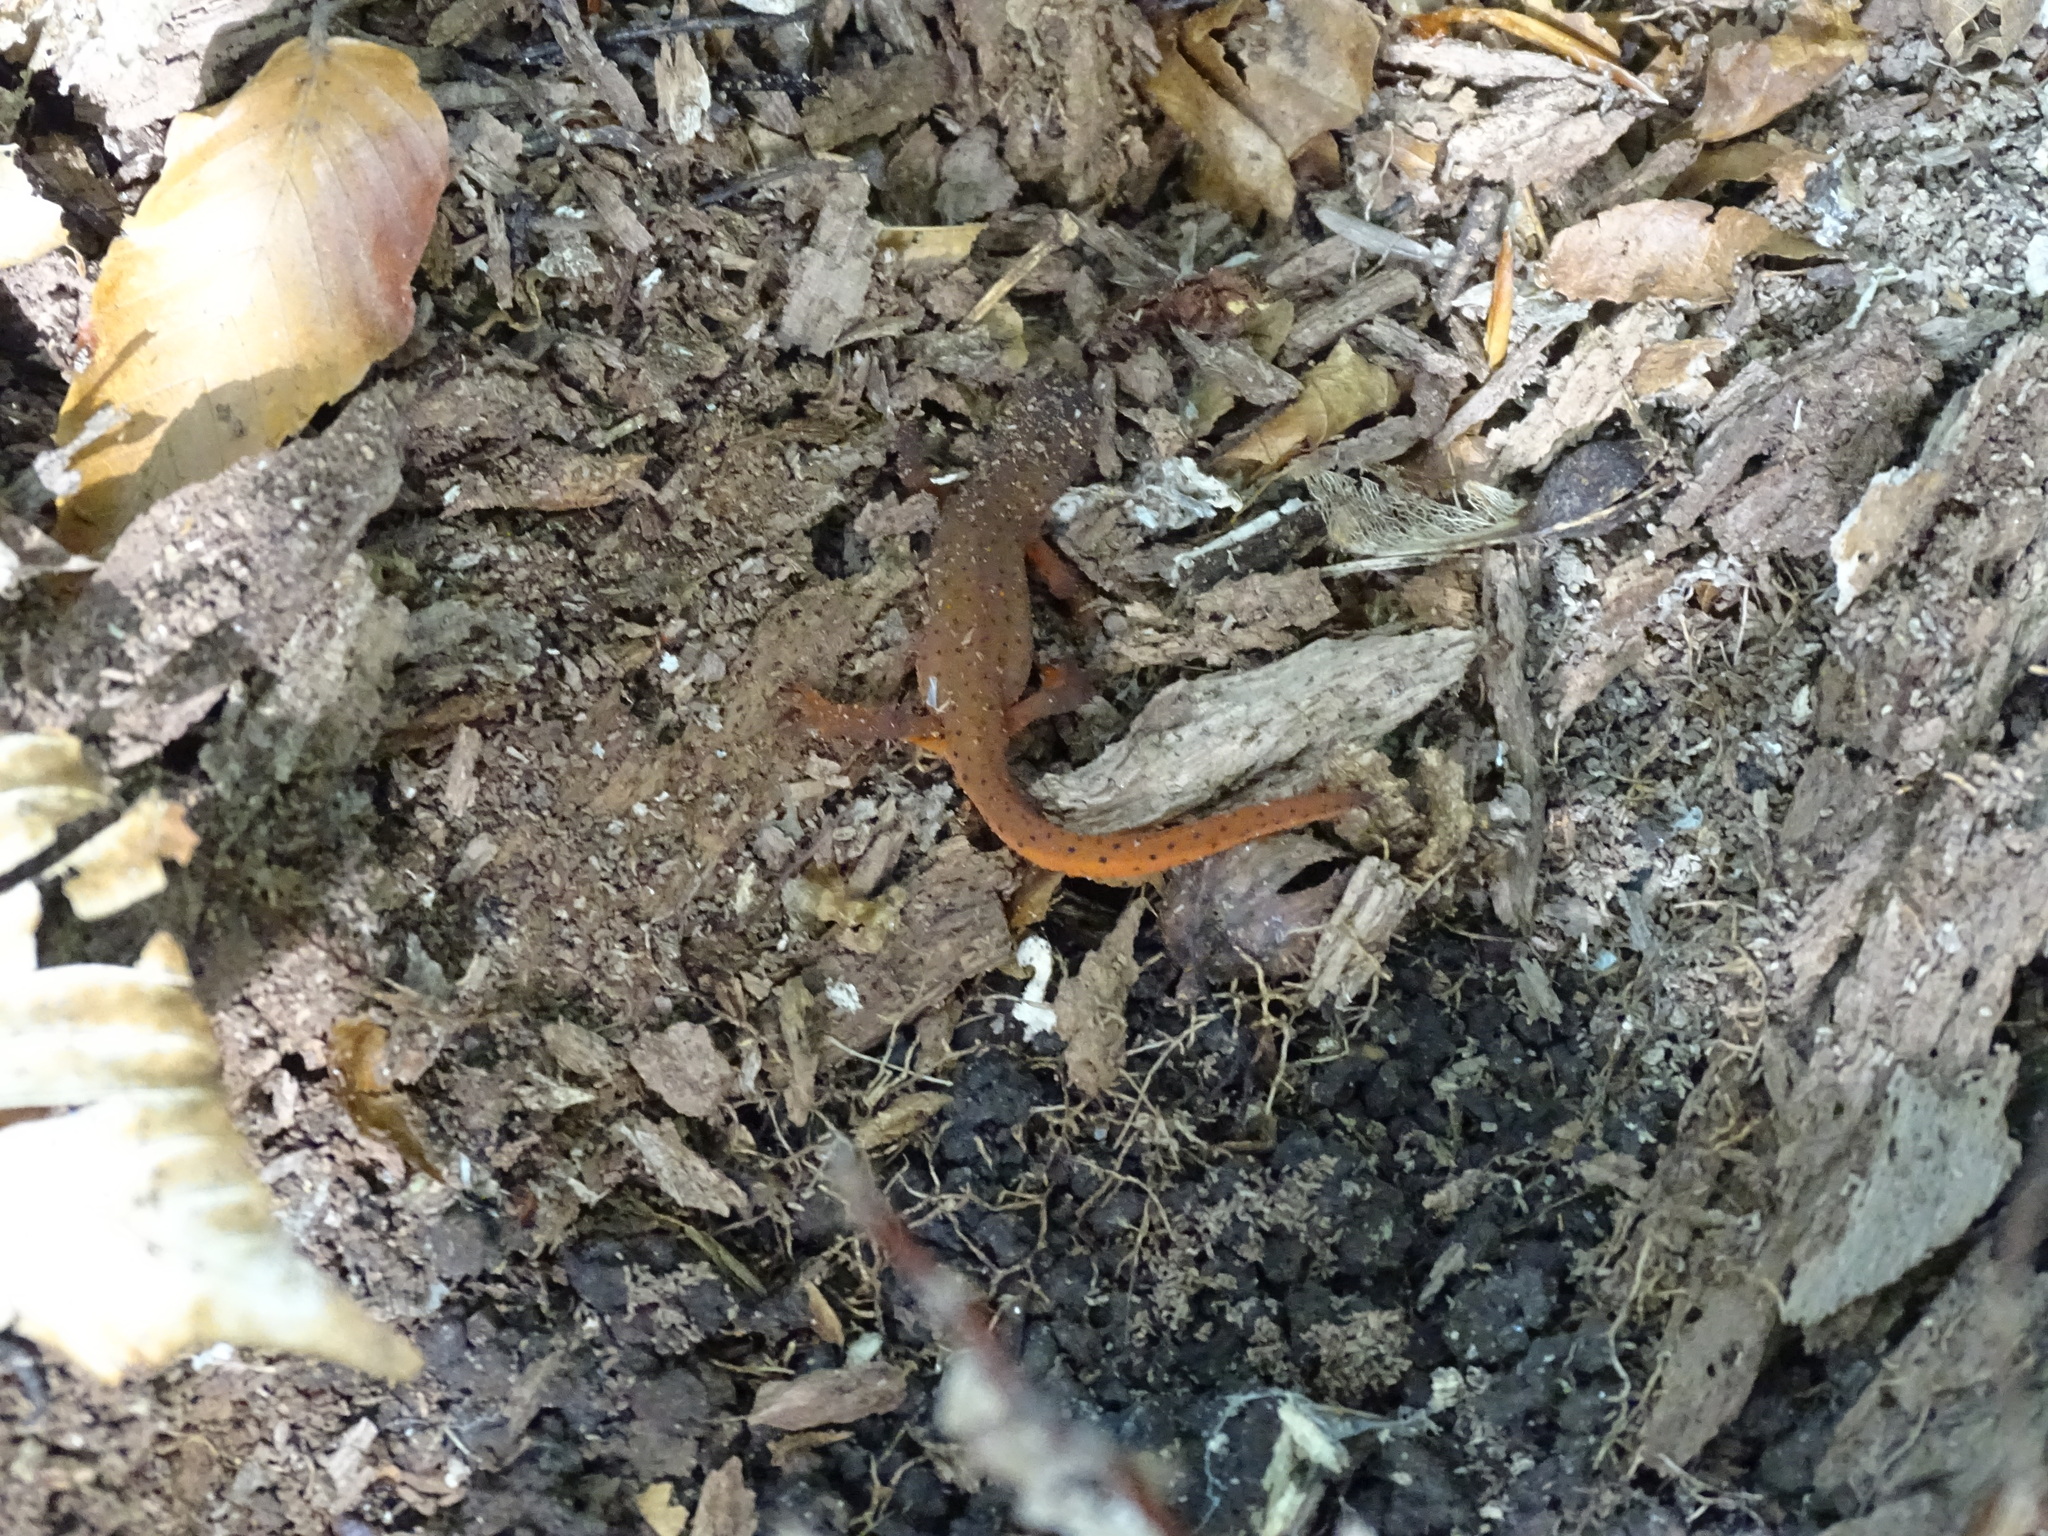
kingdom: Animalia
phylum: Chordata
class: Amphibia
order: Caudata
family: Salamandridae
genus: Notophthalmus
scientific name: Notophthalmus viridescens
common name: Eastern newt
